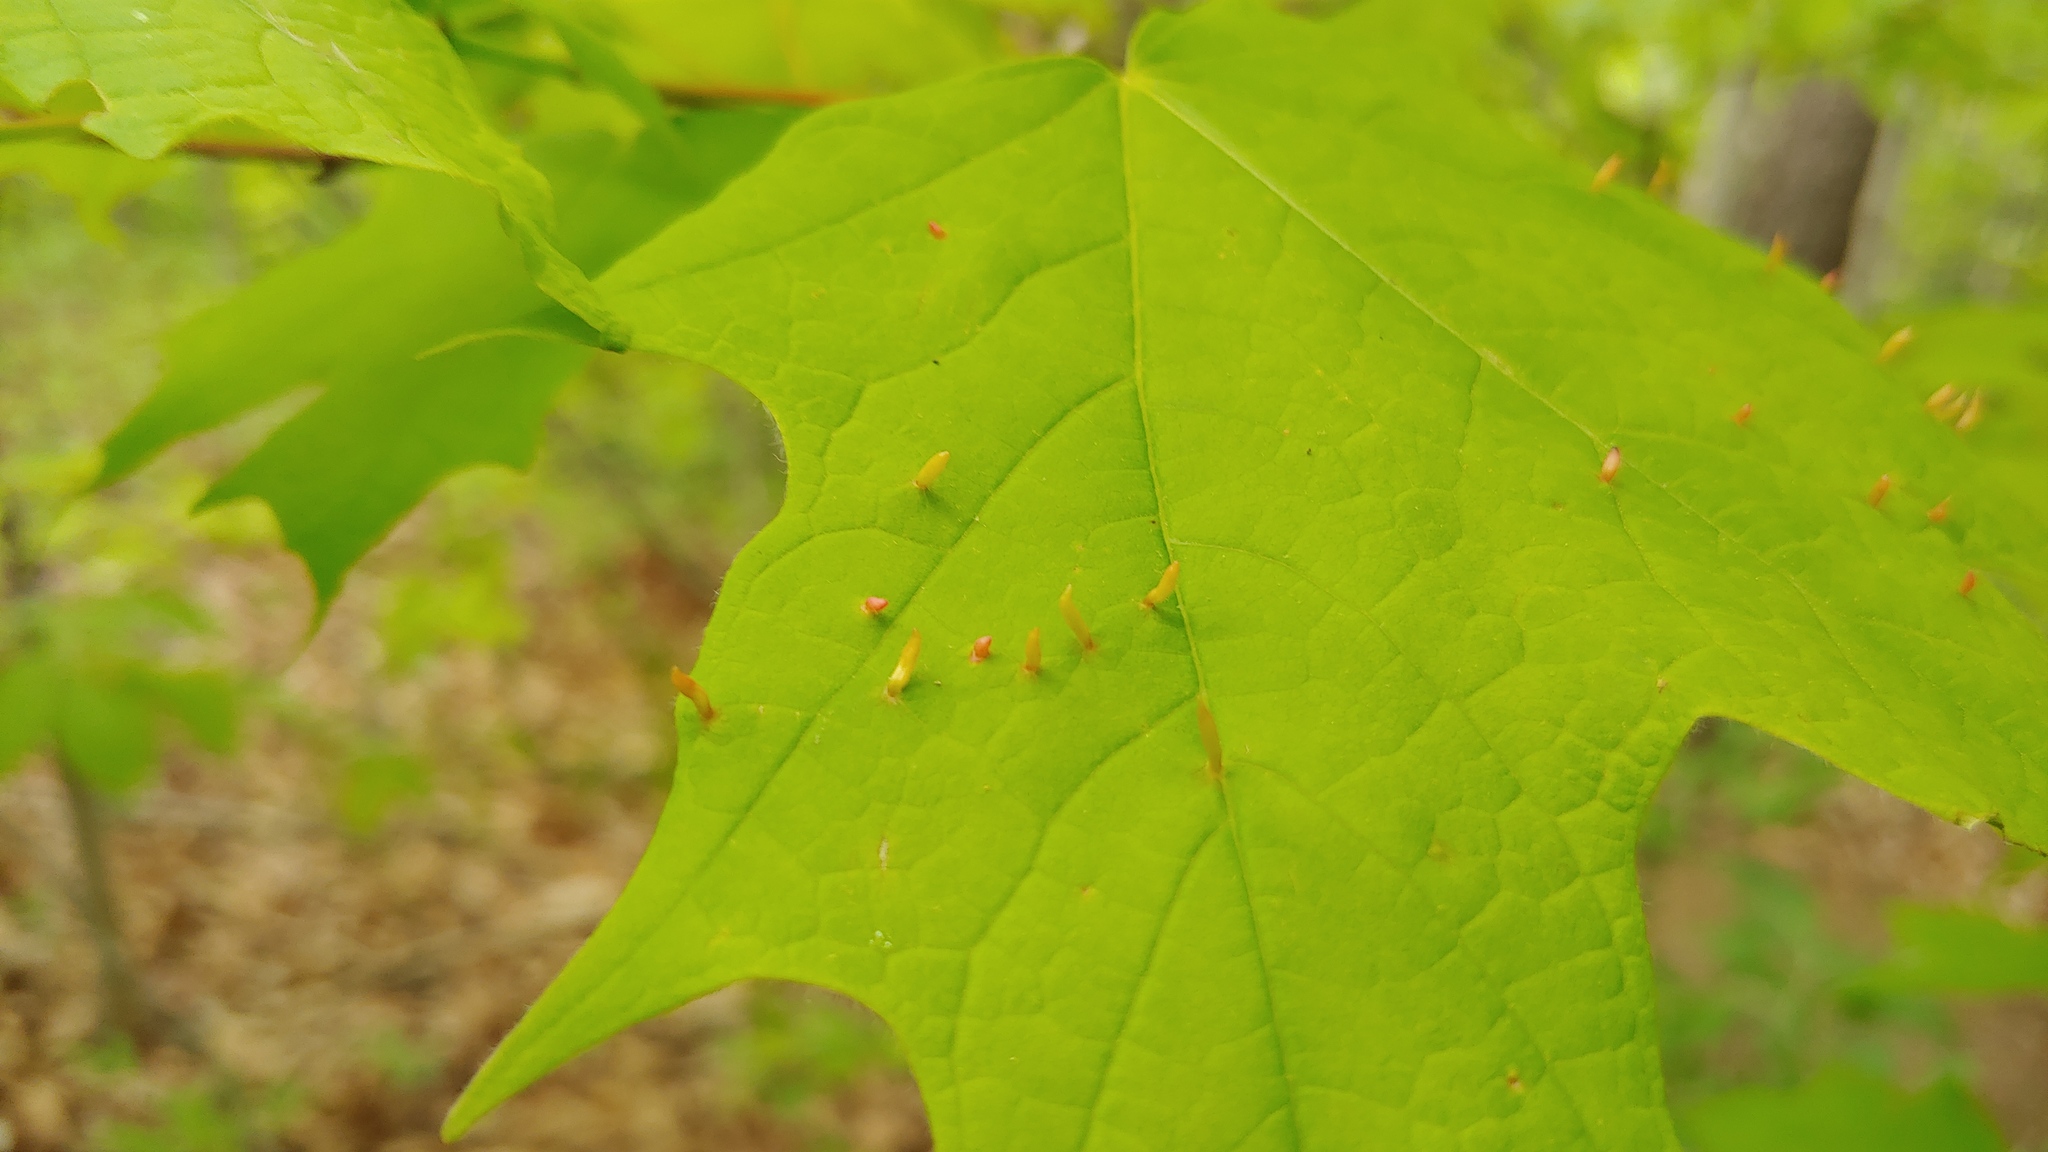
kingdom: Animalia
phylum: Arthropoda
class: Arachnida
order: Trombidiformes
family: Eriophyidae
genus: Vasates
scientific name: Vasates aceriscrumena
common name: Maple spindle gall mite
